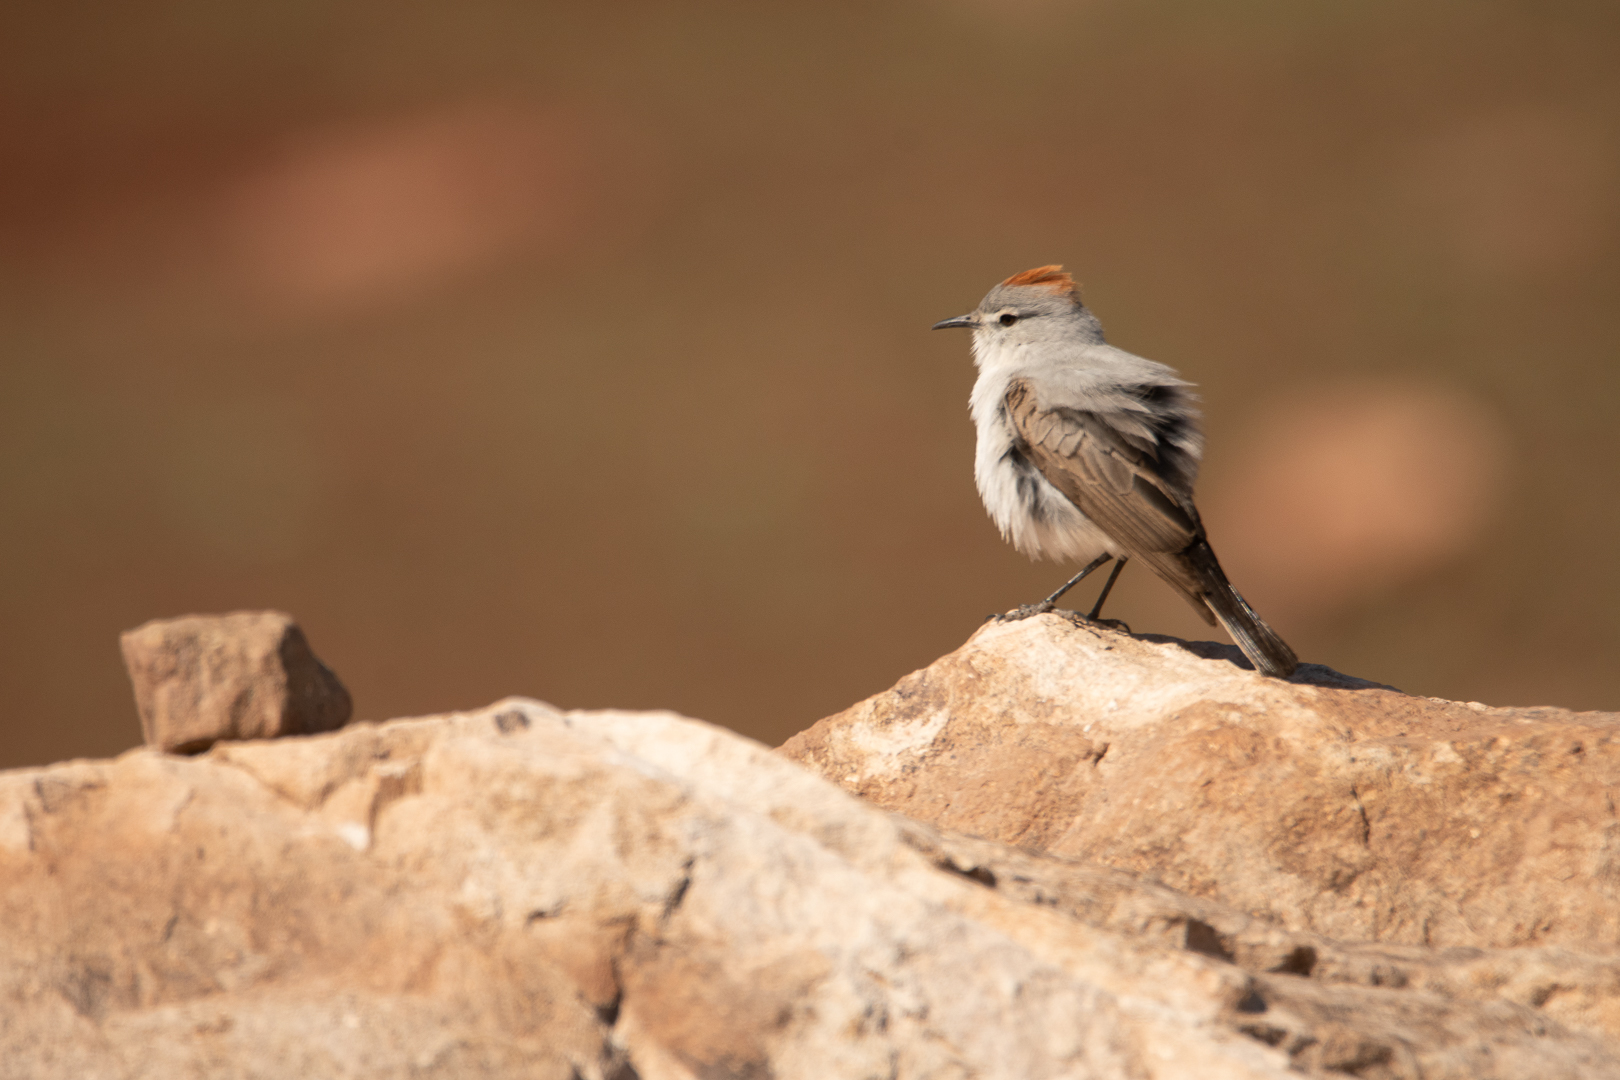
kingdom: Animalia
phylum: Chordata
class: Aves
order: Passeriformes
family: Tyrannidae
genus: Muscisaxicola
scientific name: Muscisaxicola rufivertex
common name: Rufous-naped ground tyrant
